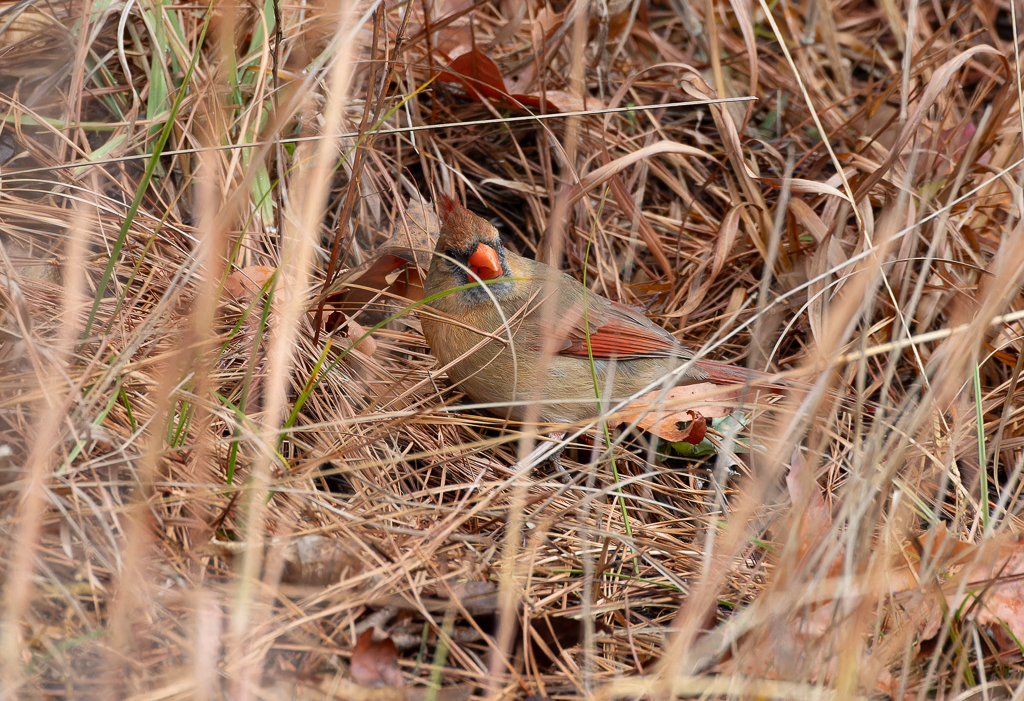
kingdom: Animalia
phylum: Chordata
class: Aves
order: Passeriformes
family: Cardinalidae
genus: Cardinalis
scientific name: Cardinalis cardinalis
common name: Northern cardinal
